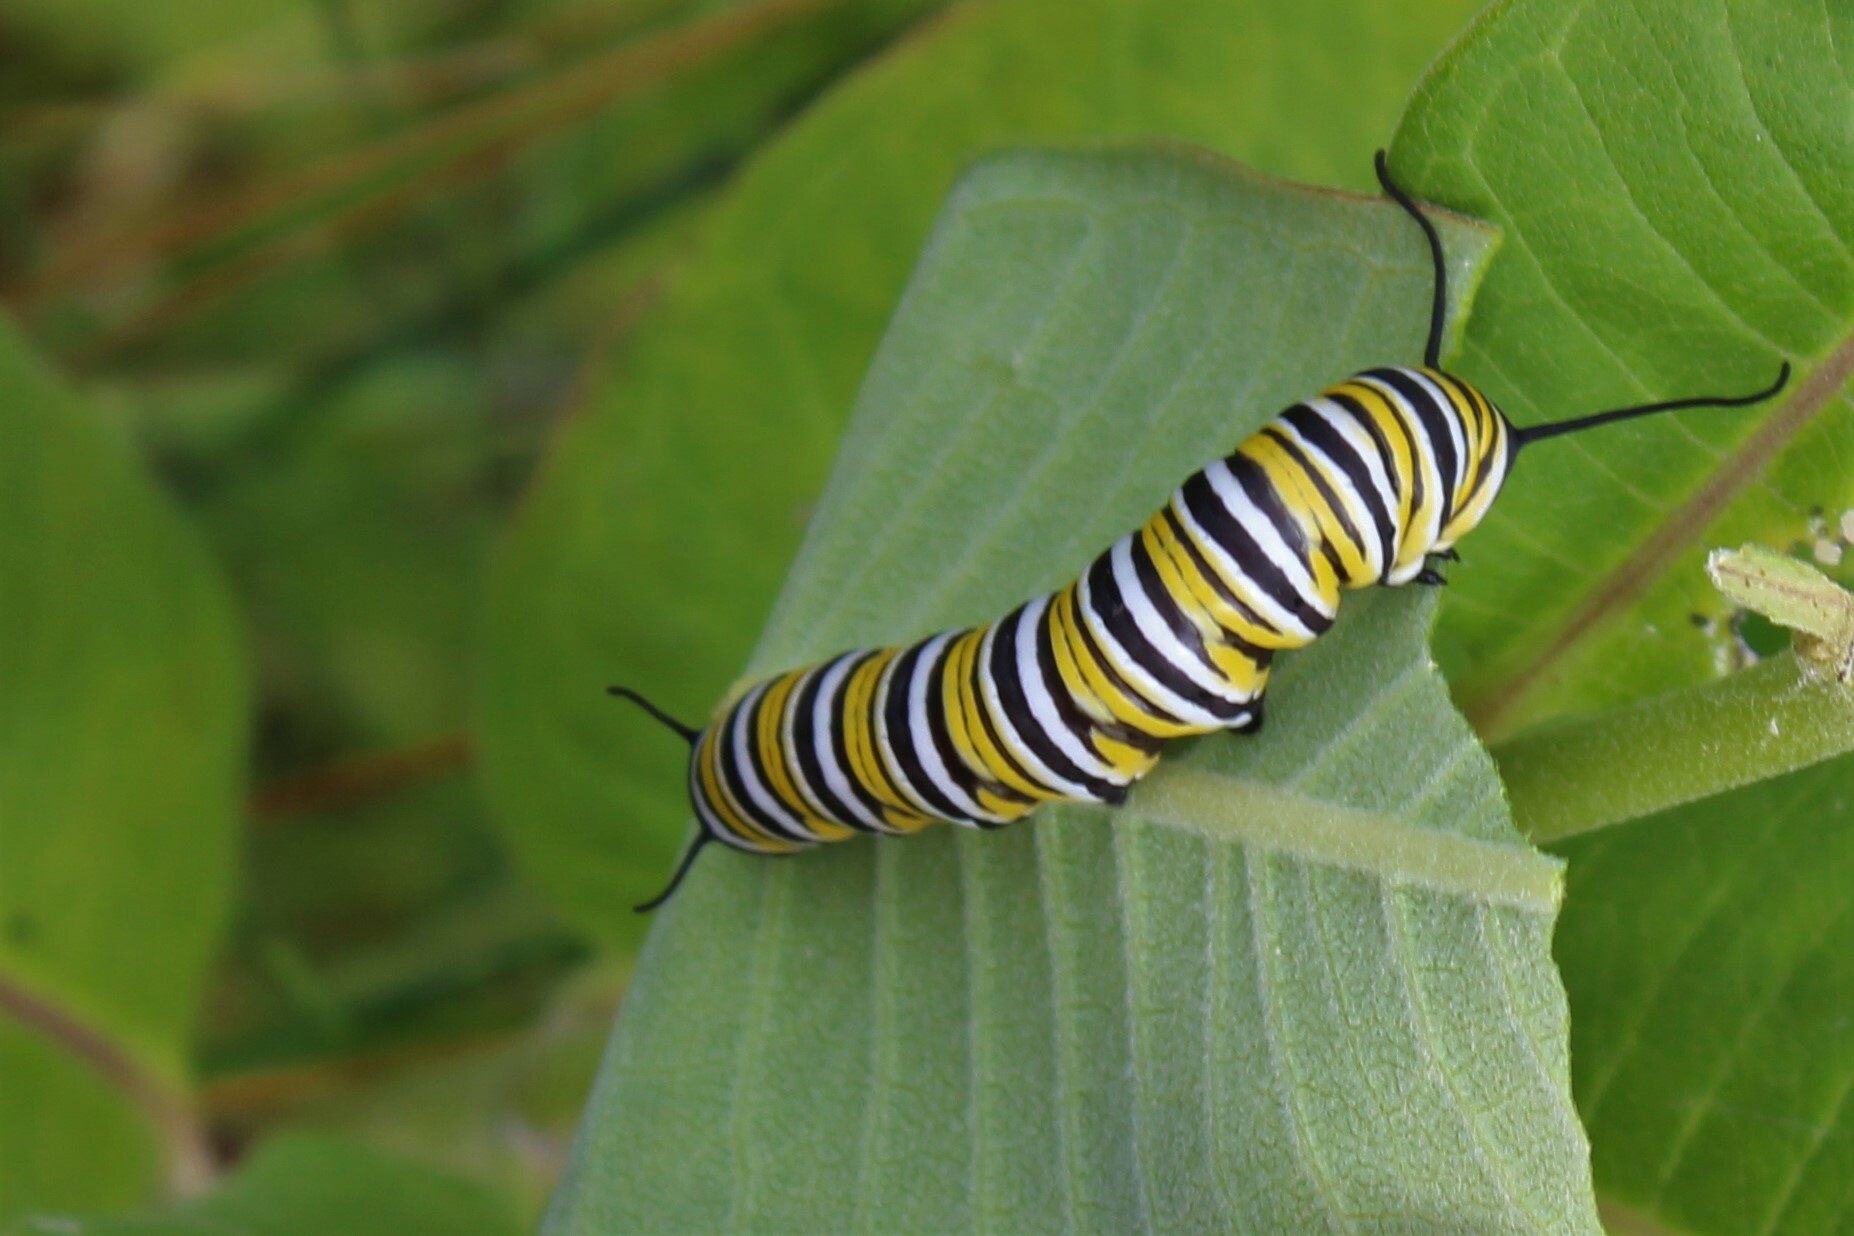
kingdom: Animalia
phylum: Arthropoda
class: Insecta
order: Lepidoptera
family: Nymphalidae
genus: Danaus
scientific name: Danaus plexippus
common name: Monarch
